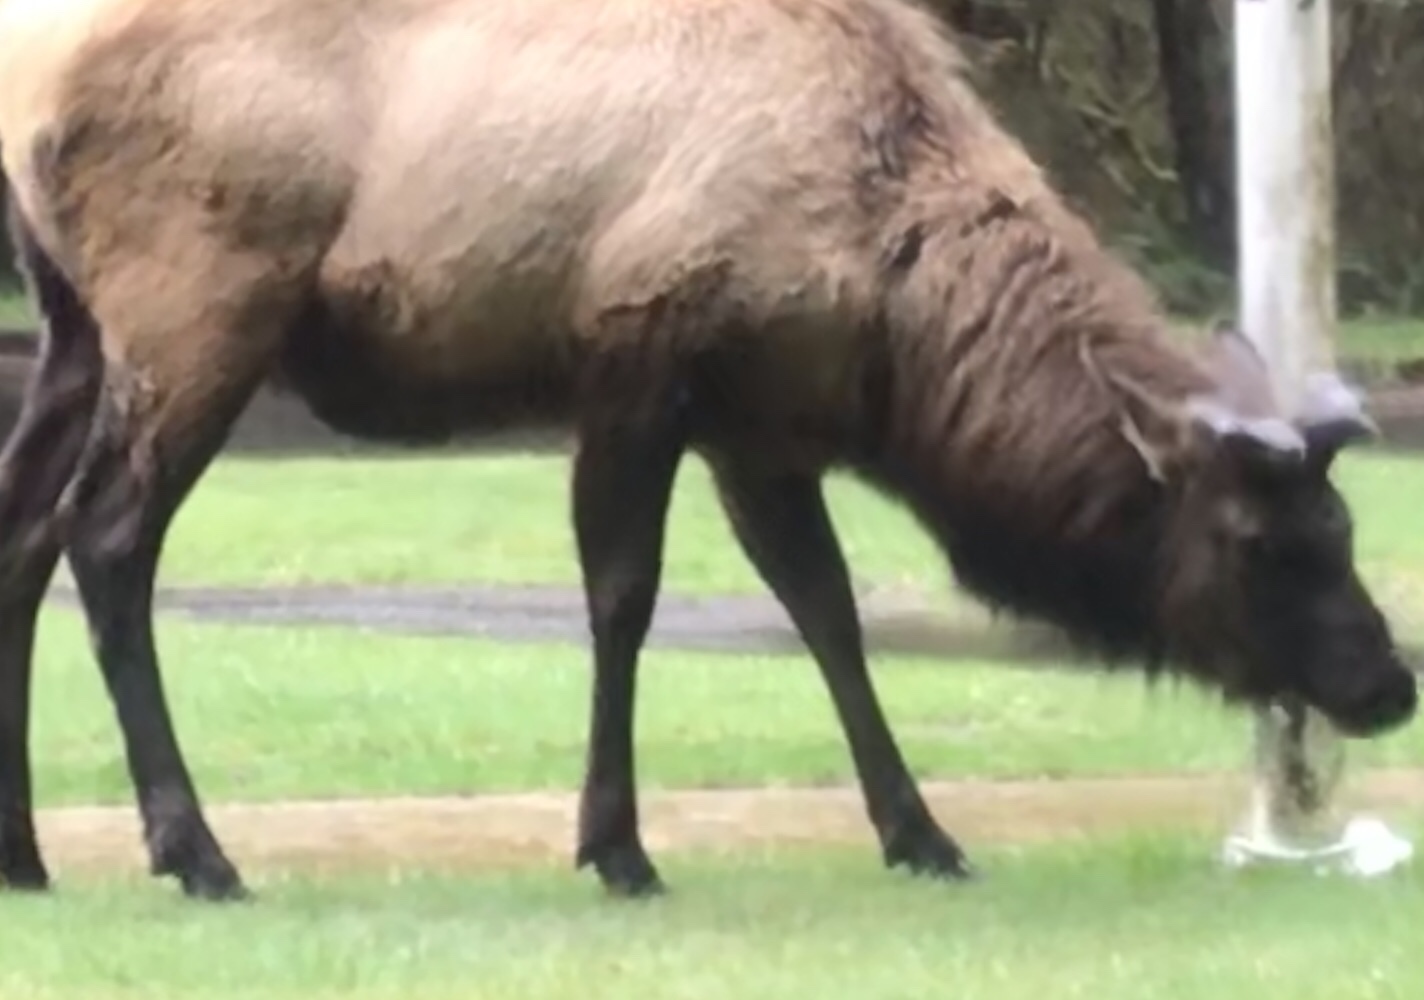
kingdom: Animalia
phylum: Chordata
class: Mammalia
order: Artiodactyla
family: Cervidae
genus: Cervus
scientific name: Cervus elaphus
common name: Red deer
